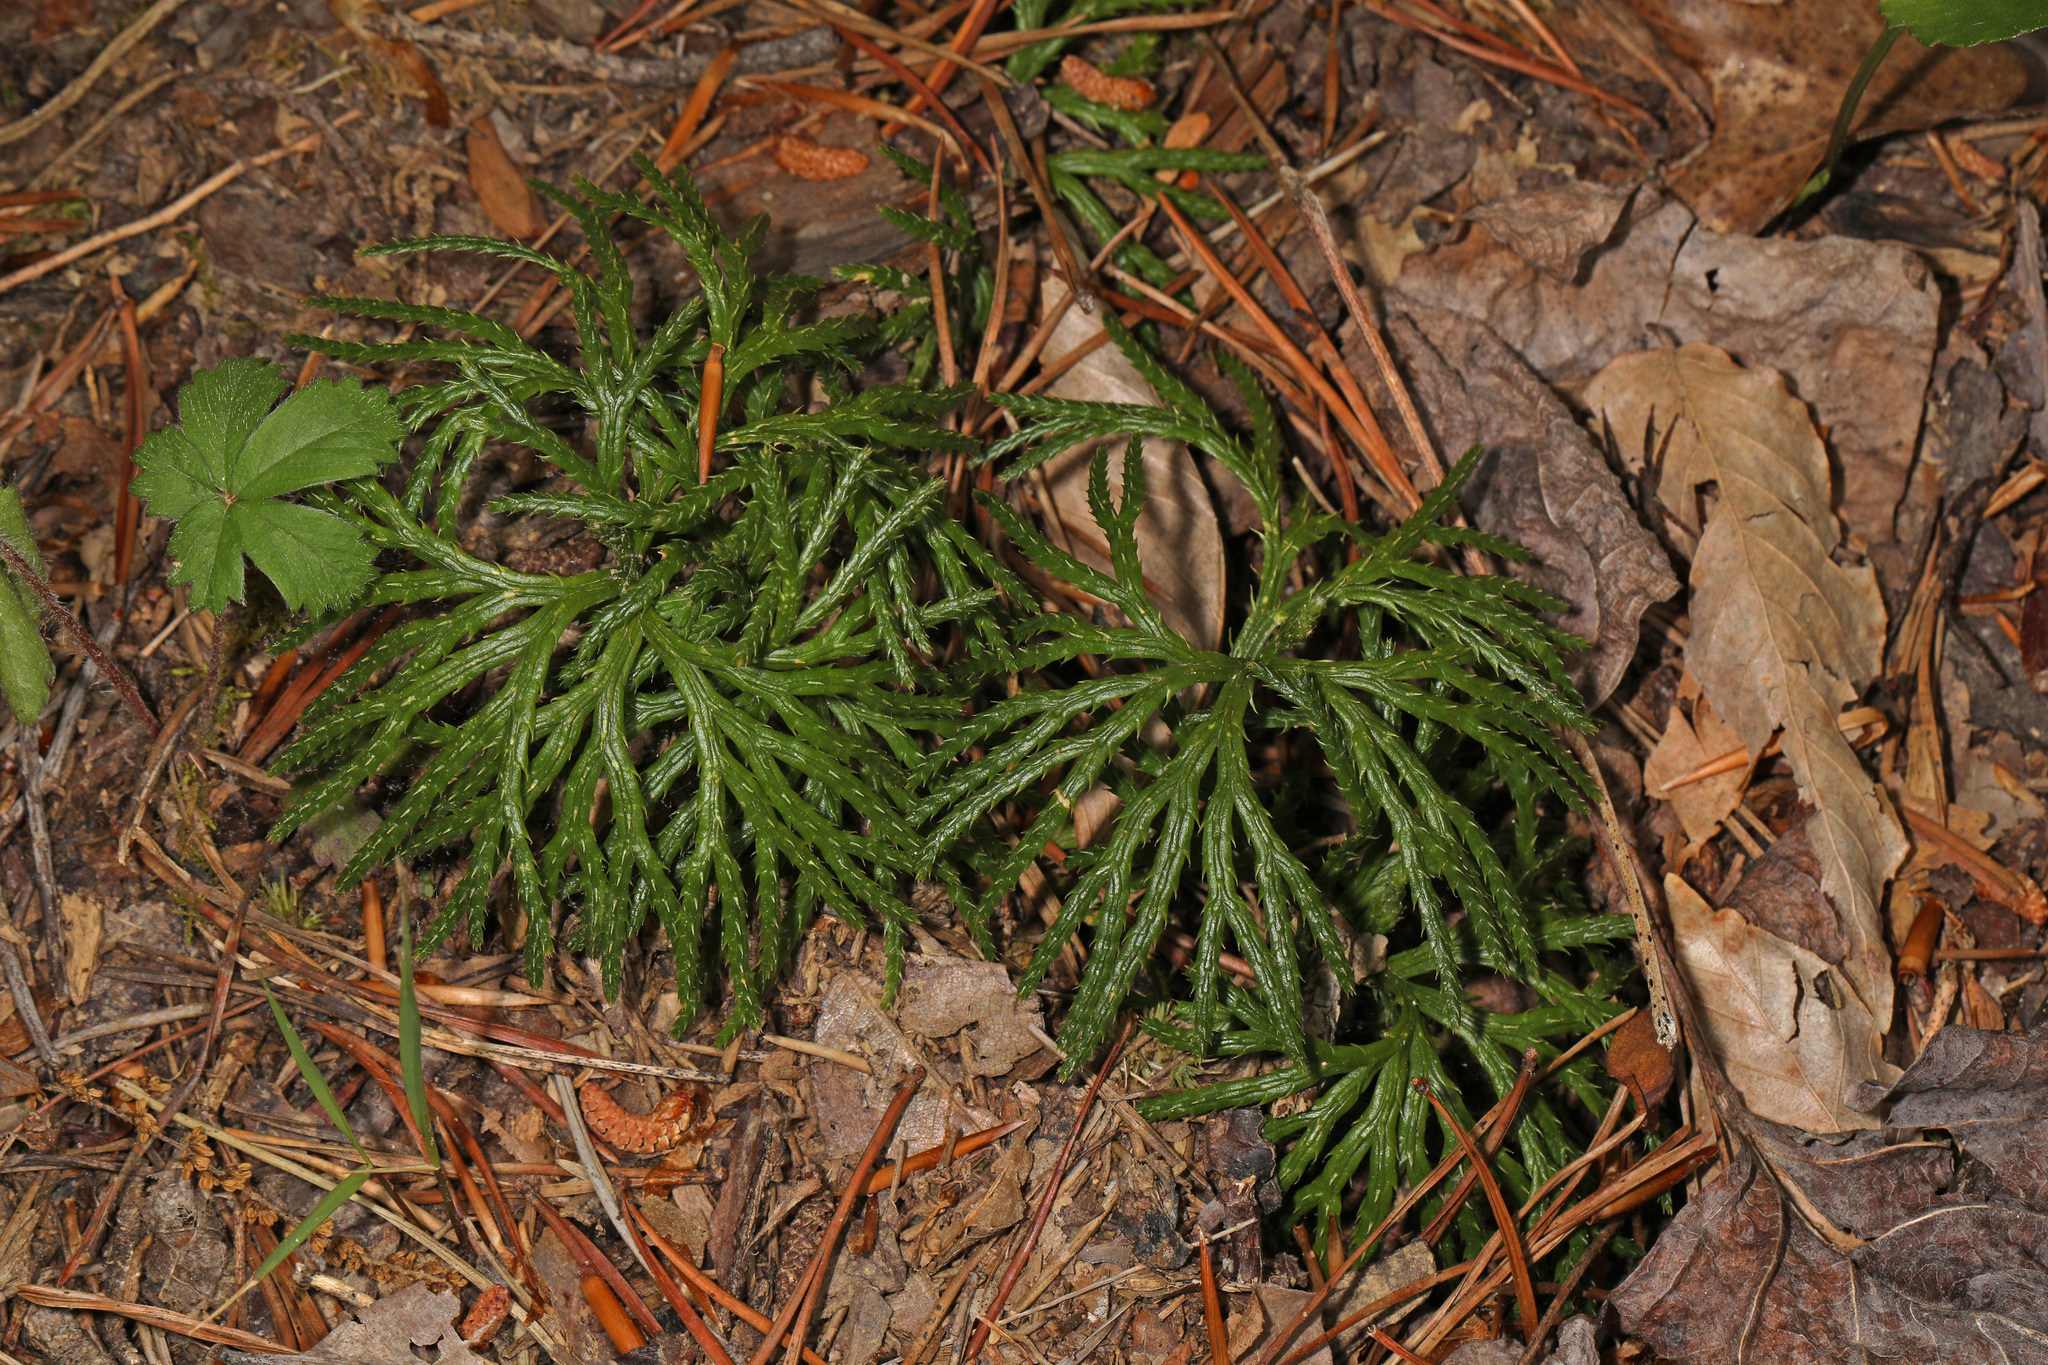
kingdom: Plantae
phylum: Tracheophyta
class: Lycopodiopsida
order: Lycopodiales
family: Lycopodiaceae
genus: Diphasiastrum
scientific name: Diphasiastrum digitatum
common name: Southern running-pine
